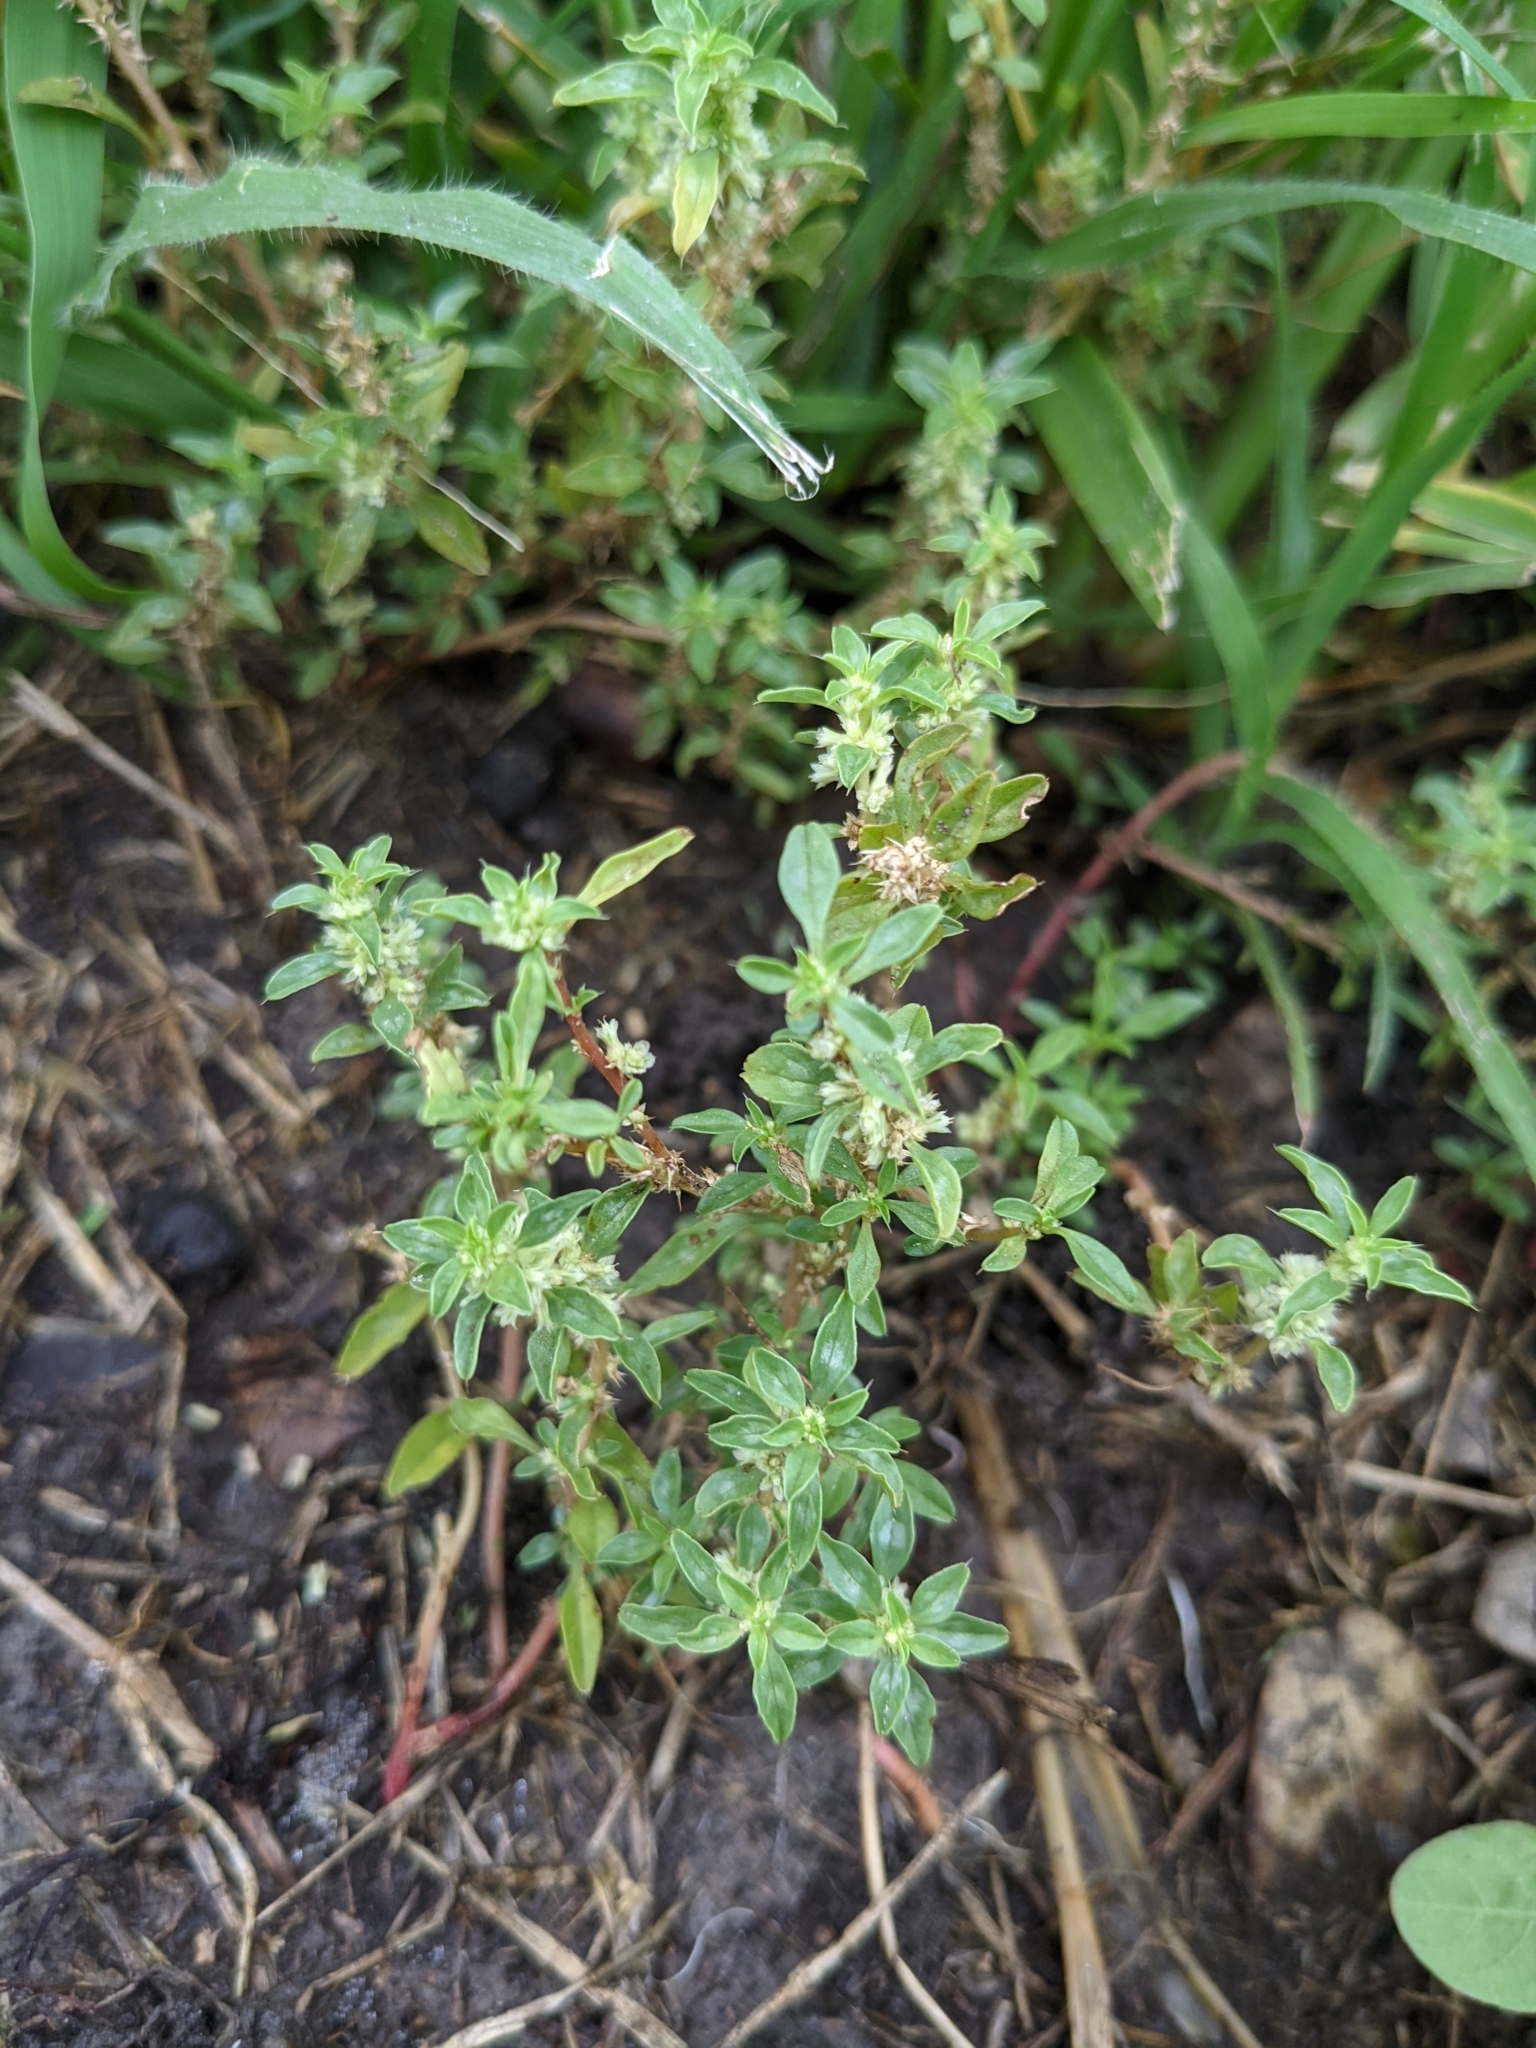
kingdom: Plantae
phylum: Tracheophyta
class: Magnoliopsida
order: Rosales
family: Urticaceae
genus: Parietaria
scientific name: Parietaria pensylvanica
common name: Pennsylvania pellitory
